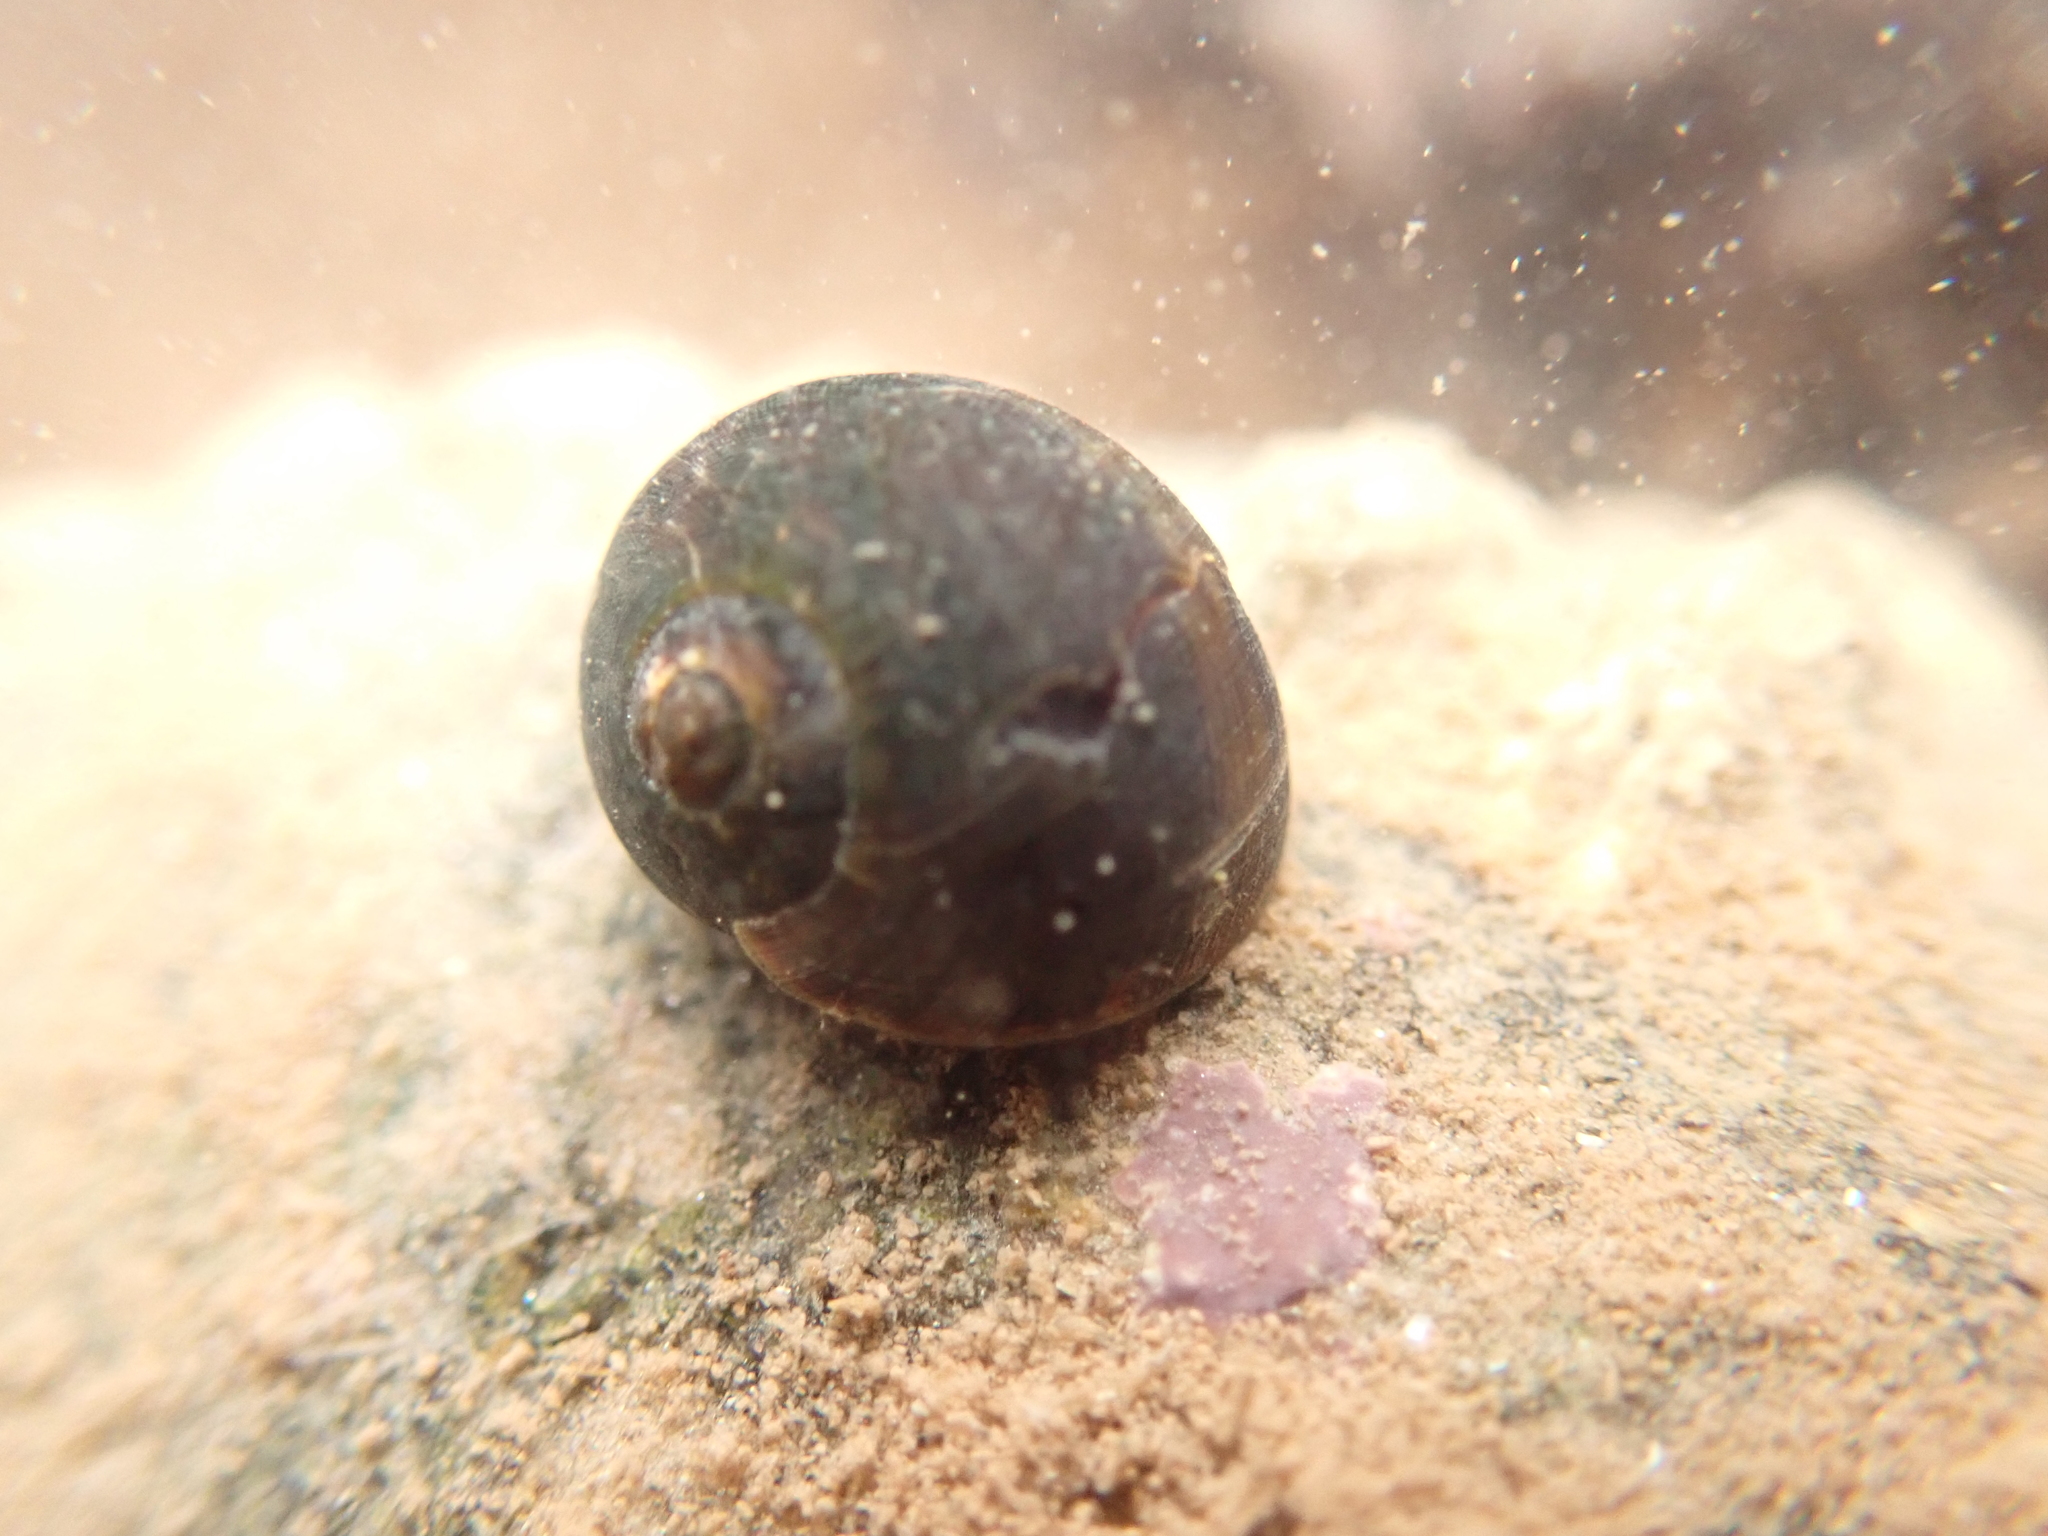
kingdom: Animalia
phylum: Mollusca
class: Gastropoda
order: Littorinimorpha
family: Littorinidae
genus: Littorina
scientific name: Littorina obtusata
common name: Flat periwinkle
